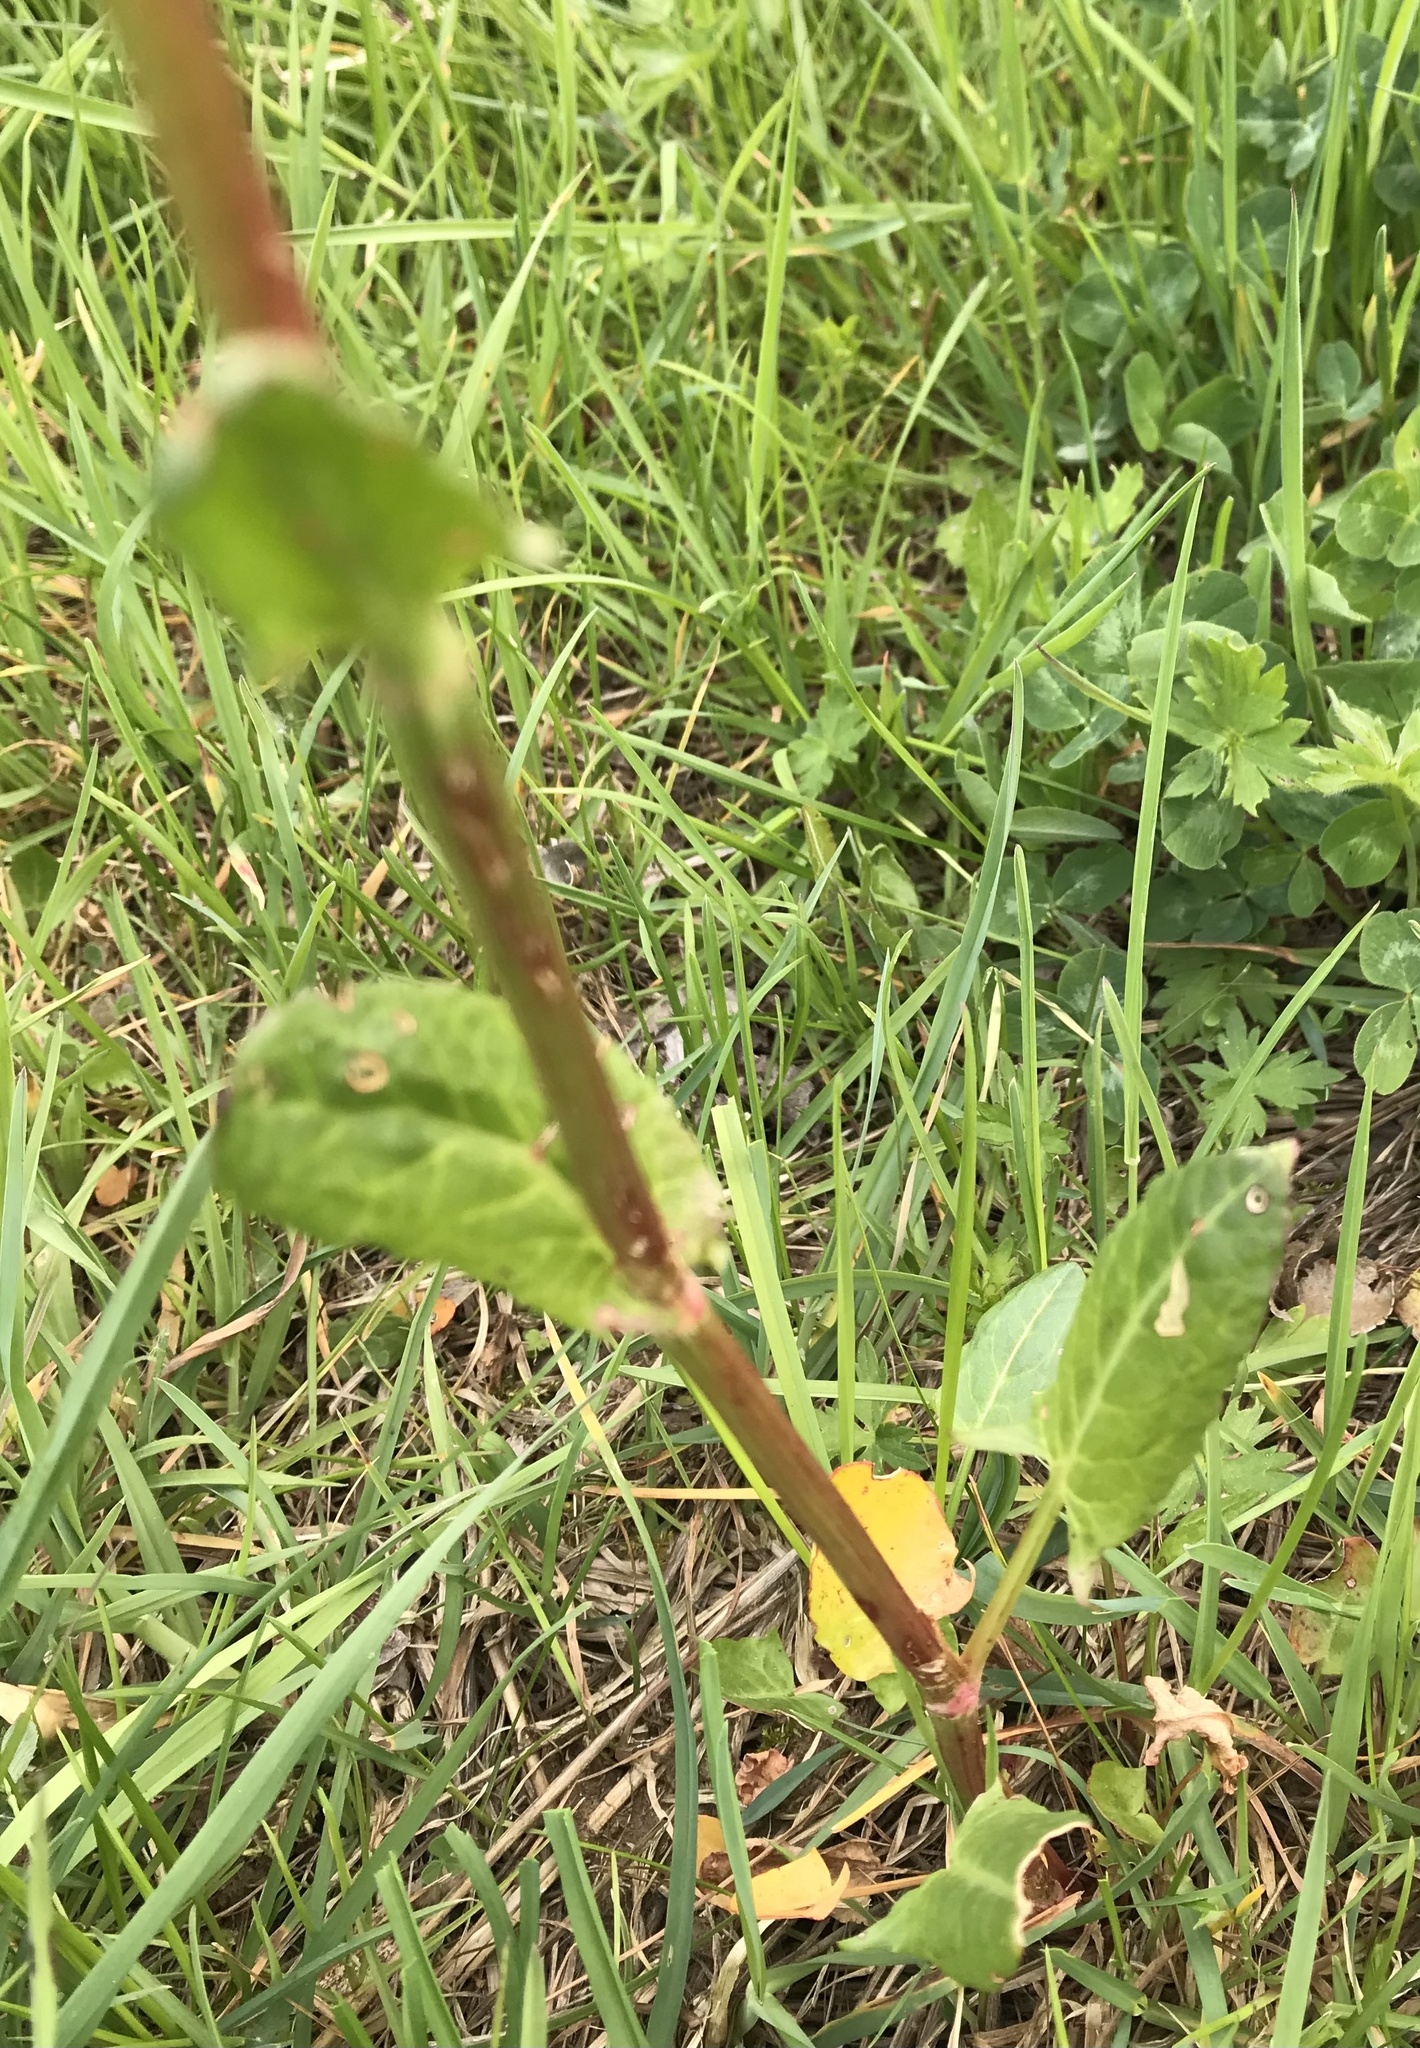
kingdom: Plantae
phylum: Tracheophyta
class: Magnoliopsida
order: Caryophyllales
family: Polygonaceae
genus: Rumex
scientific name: Rumex acetosa
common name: Garden sorrel
